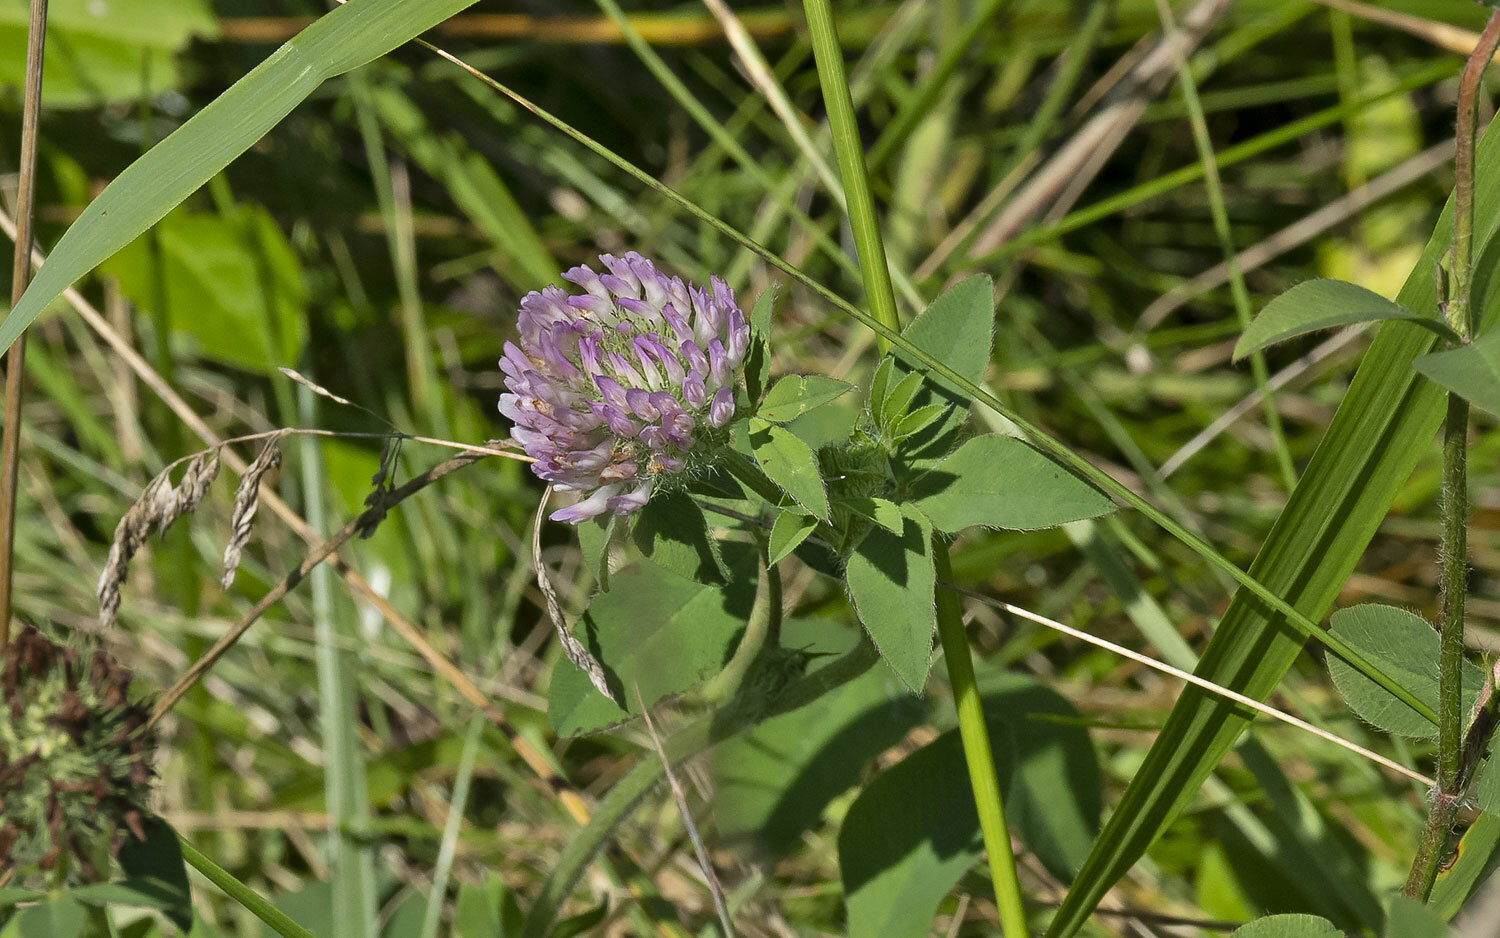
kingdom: Plantae
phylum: Tracheophyta
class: Magnoliopsida
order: Fabales
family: Fabaceae
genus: Trifolium
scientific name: Trifolium pratense
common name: Red clover
